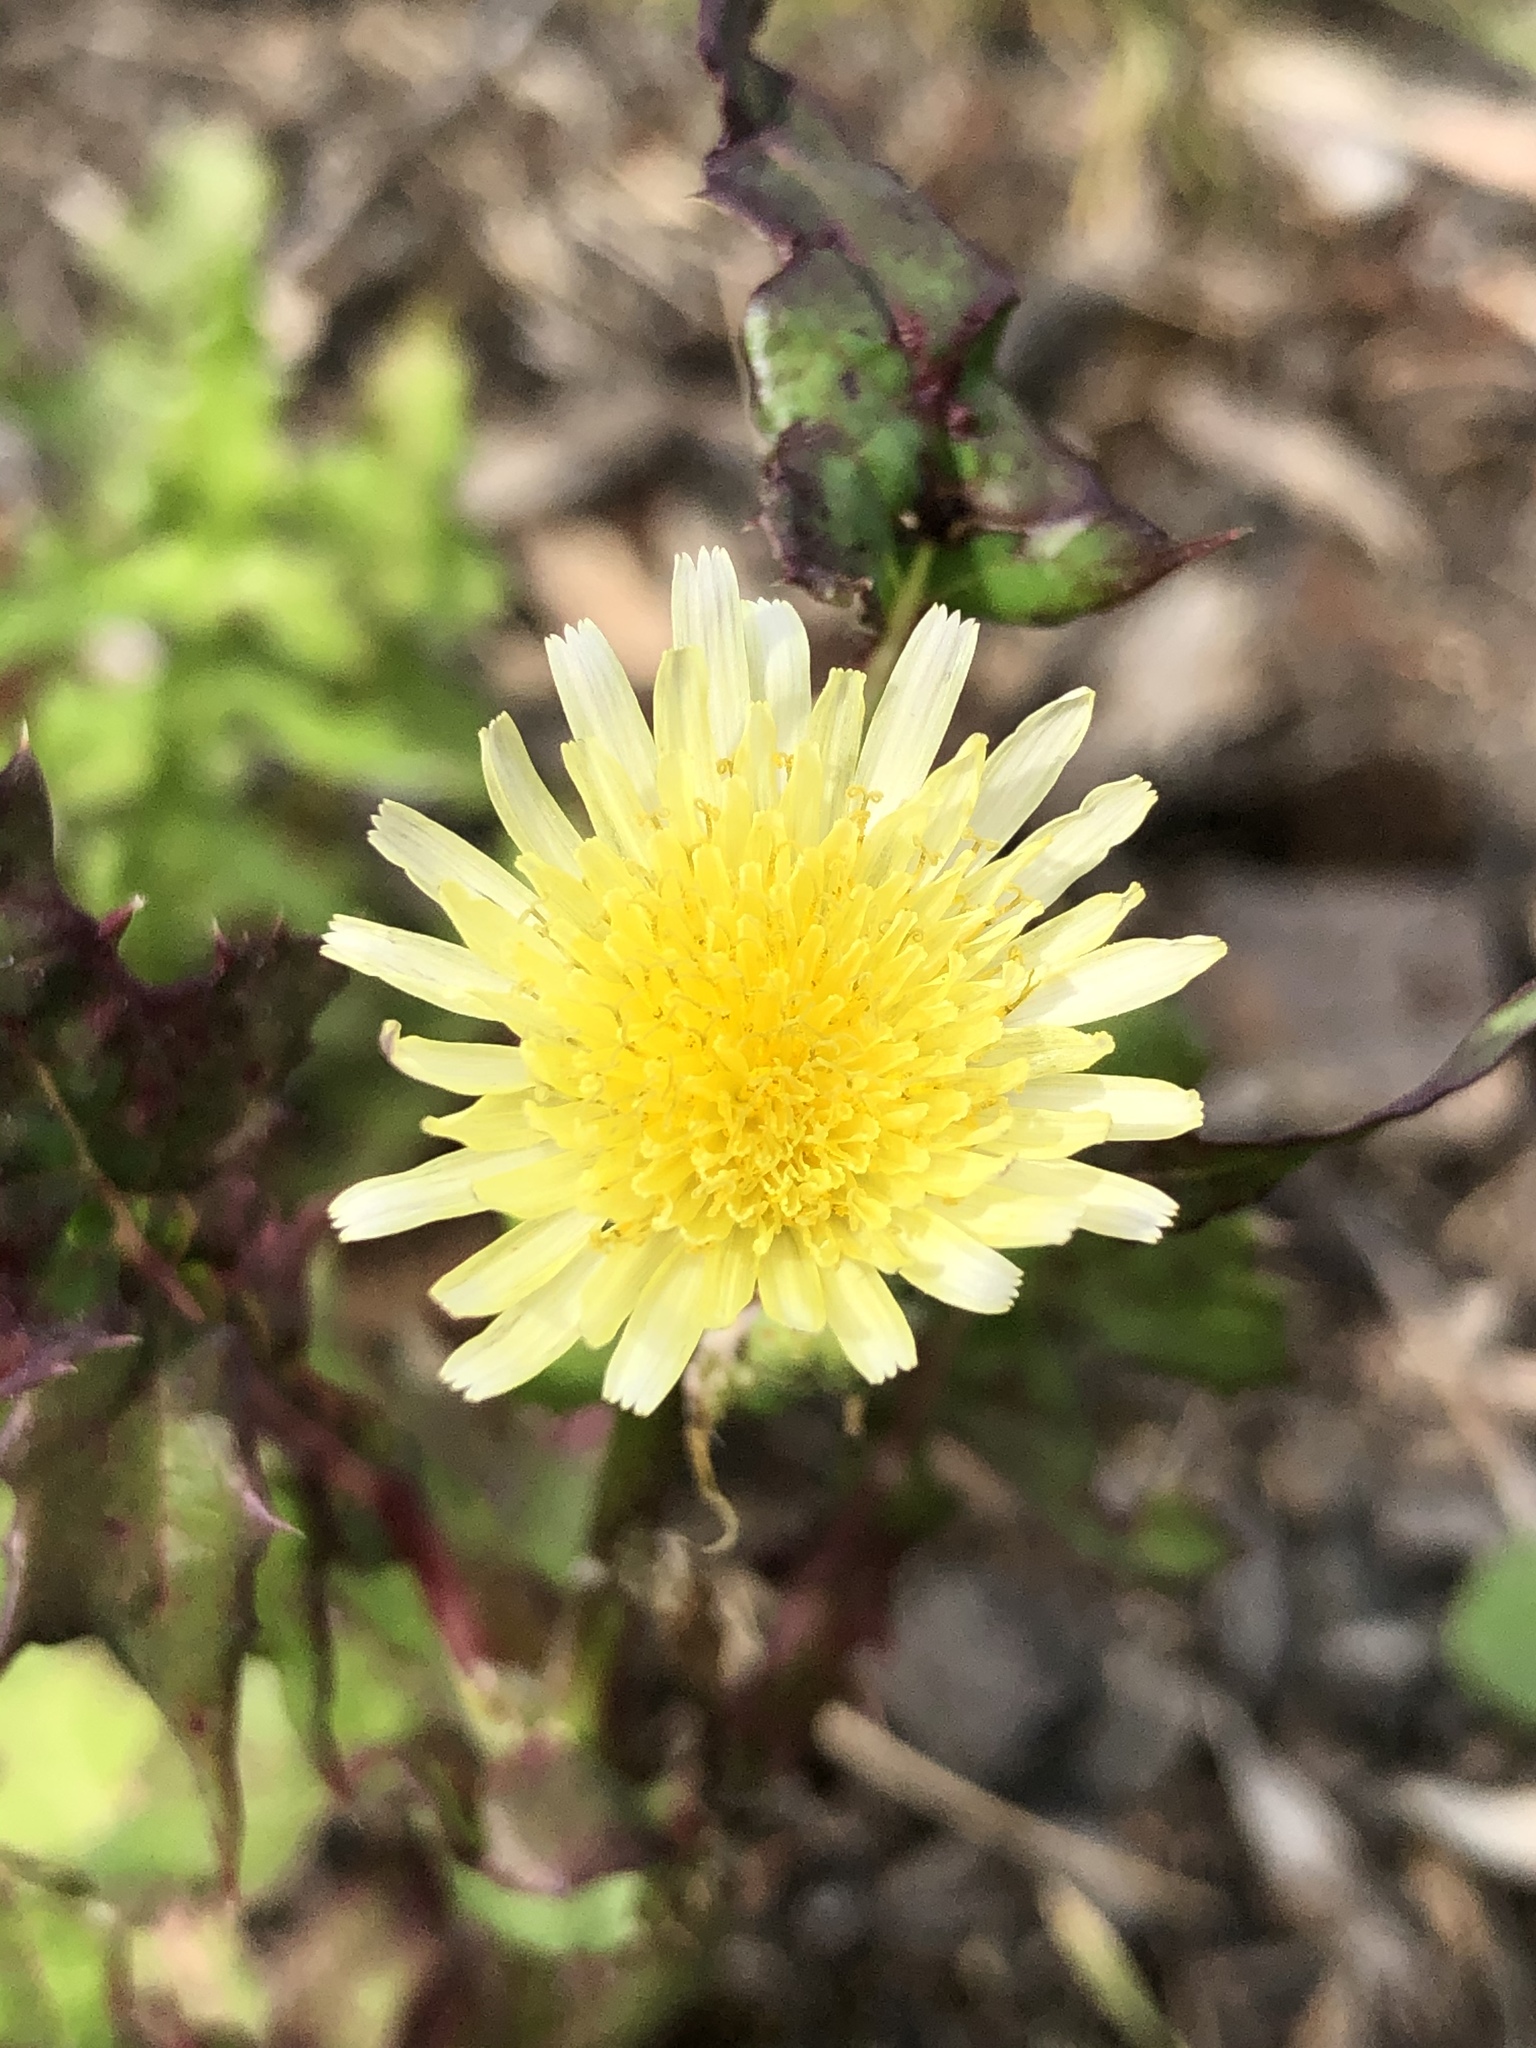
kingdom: Plantae
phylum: Tracheophyta
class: Magnoliopsida
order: Asterales
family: Asteraceae
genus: Sonchus
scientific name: Sonchus oleraceus
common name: Common sowthistle
